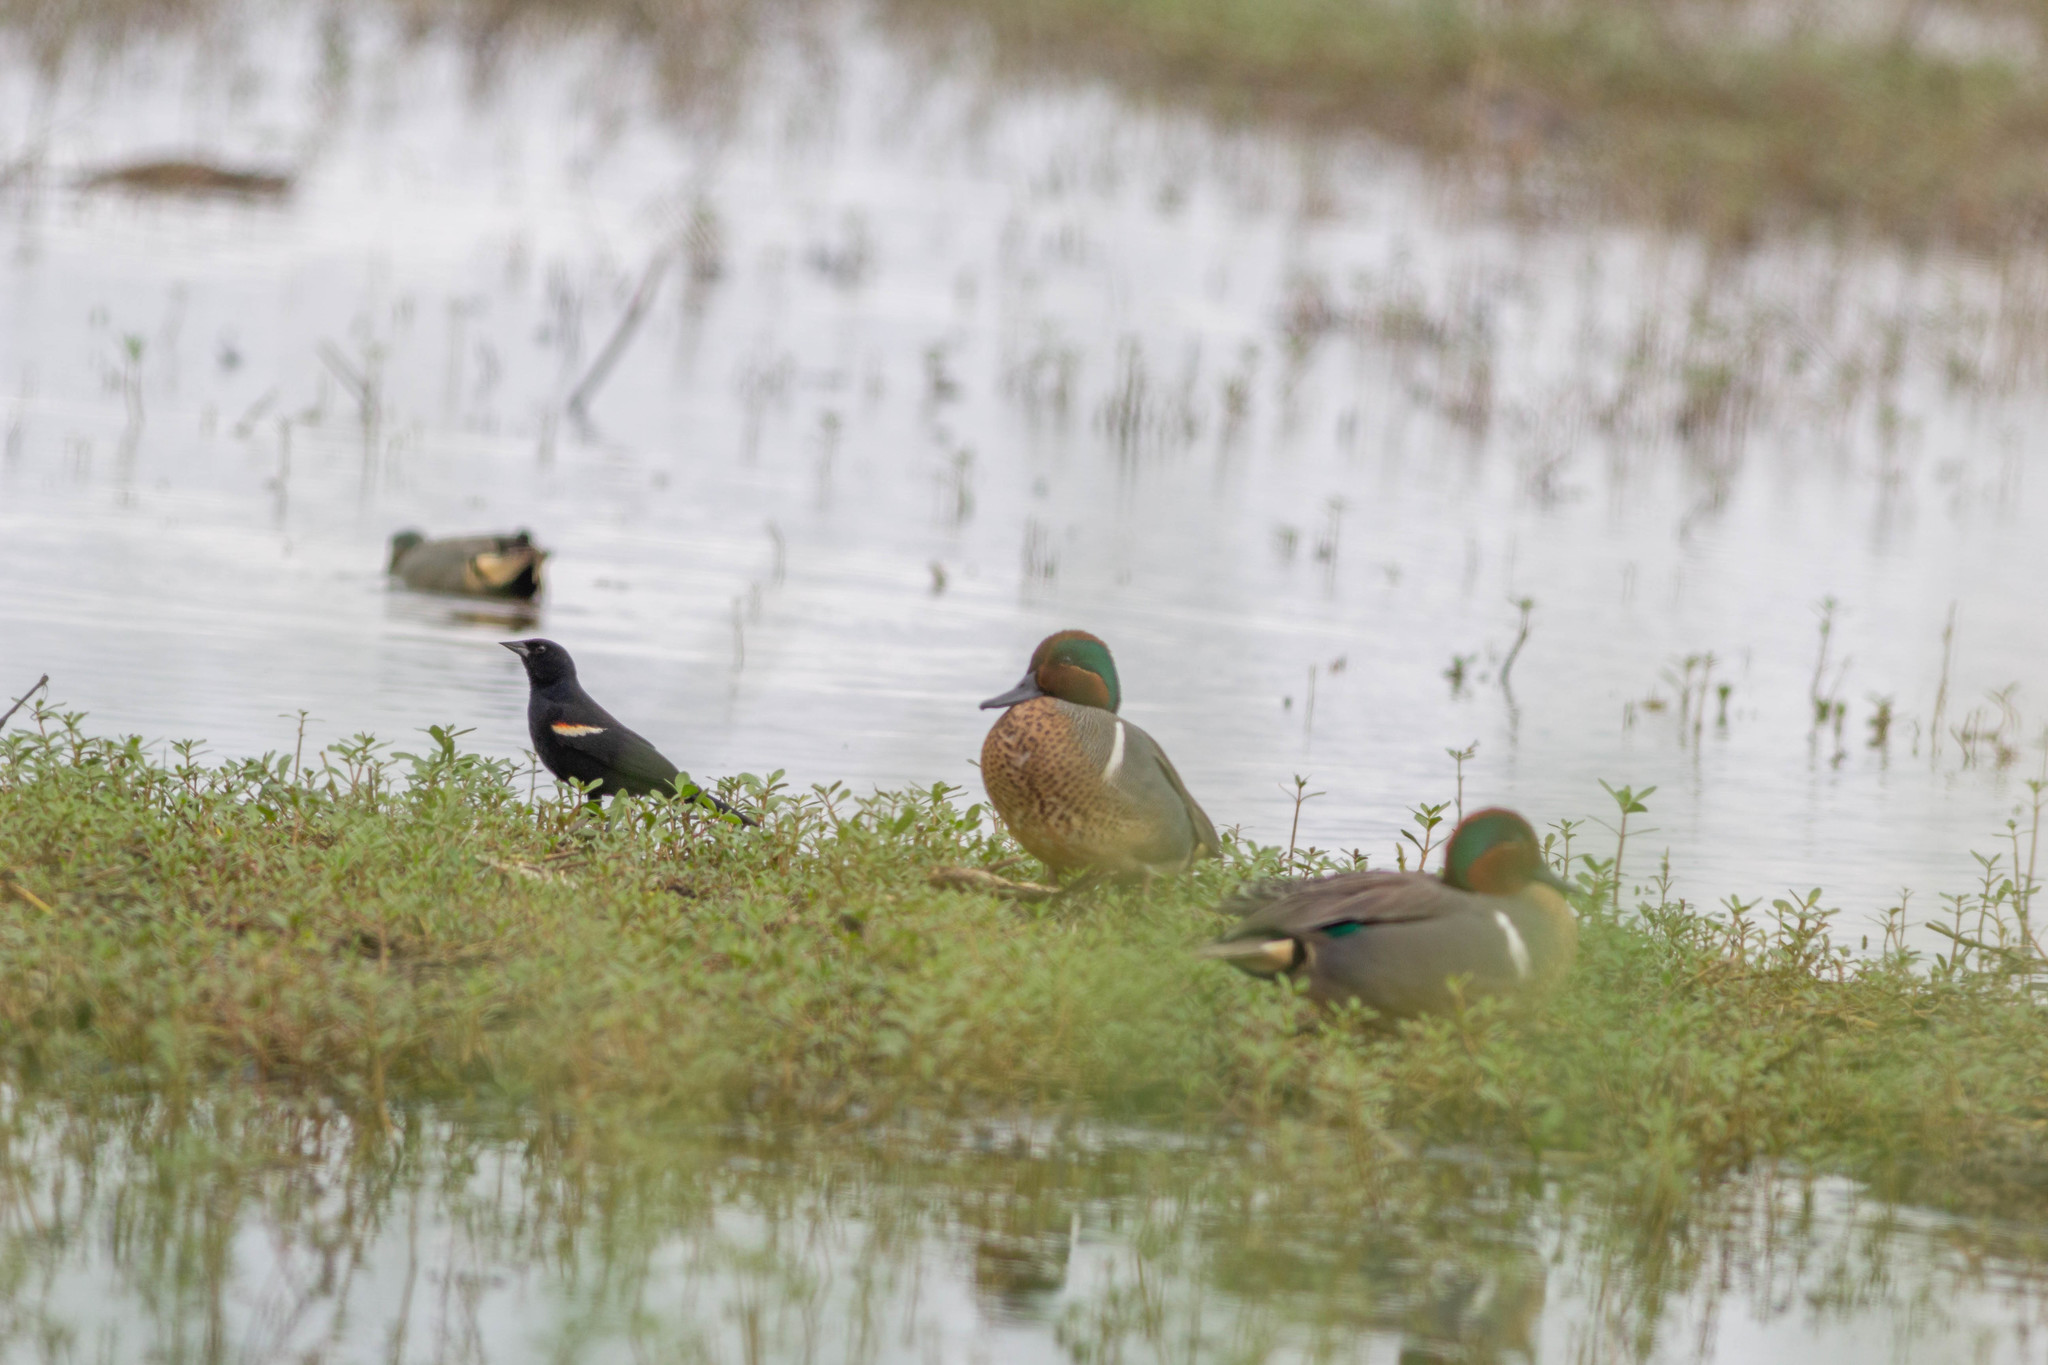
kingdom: Animalia
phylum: Chordata
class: Aves
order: Anseriformes
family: Anatidae
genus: Anas
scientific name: Anas crecca
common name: Eurasian teal
